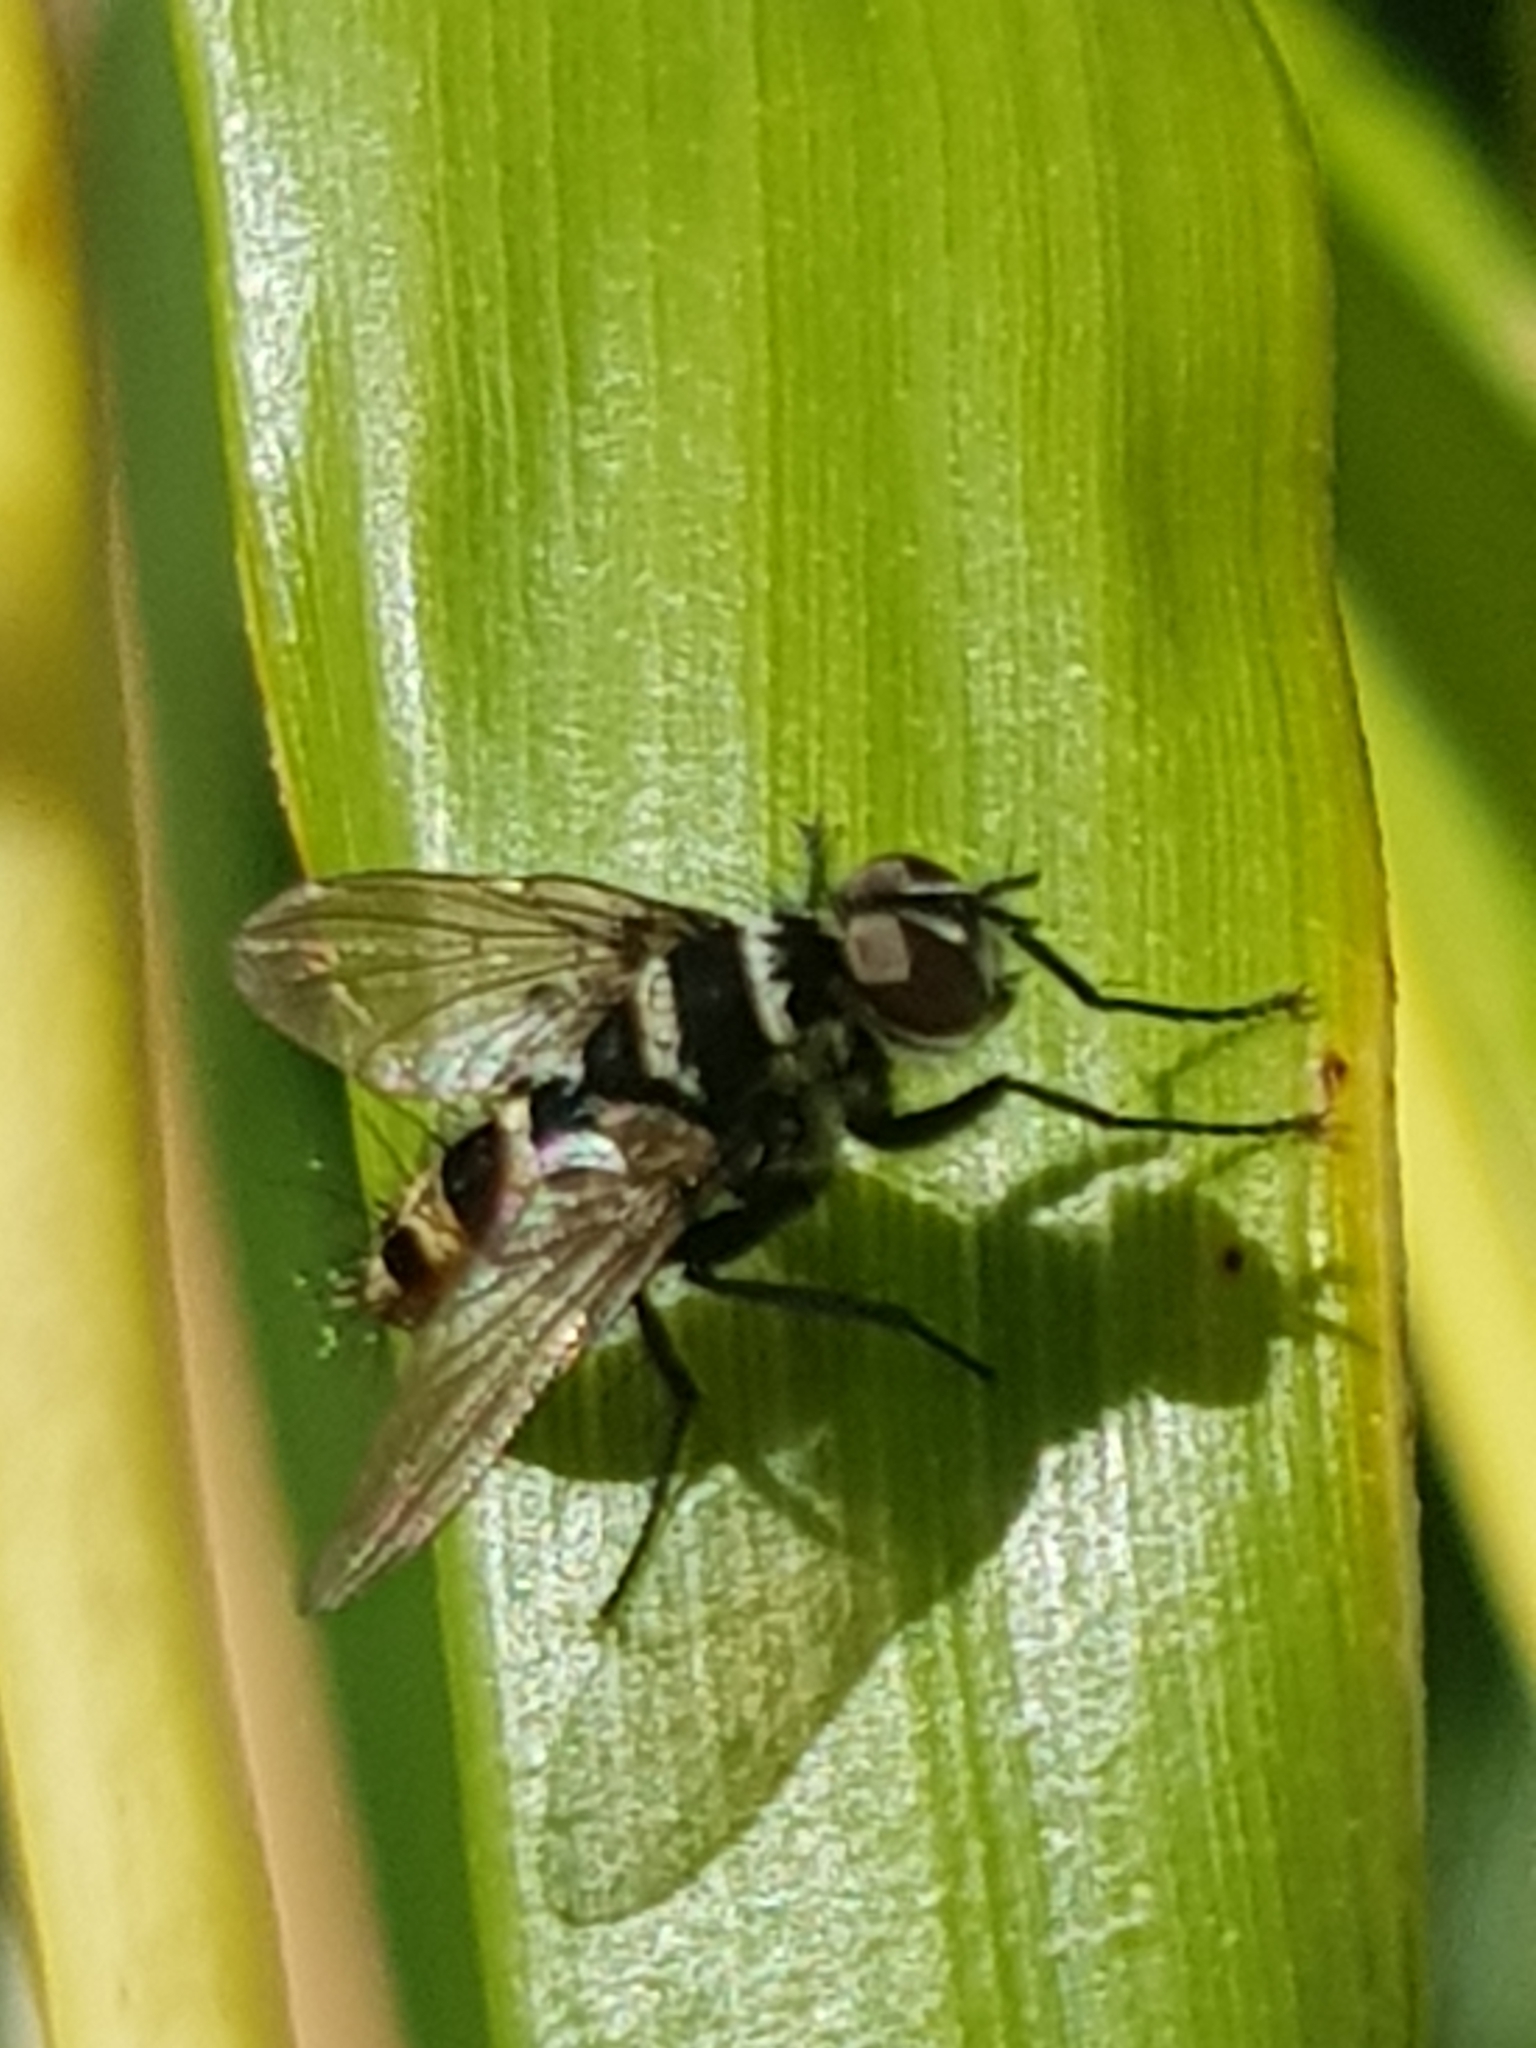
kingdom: Animalia
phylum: Arthropoda
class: Insecta
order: Diptera
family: Tachinidae
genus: Trigonospila
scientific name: Trigonospila brevifacies
